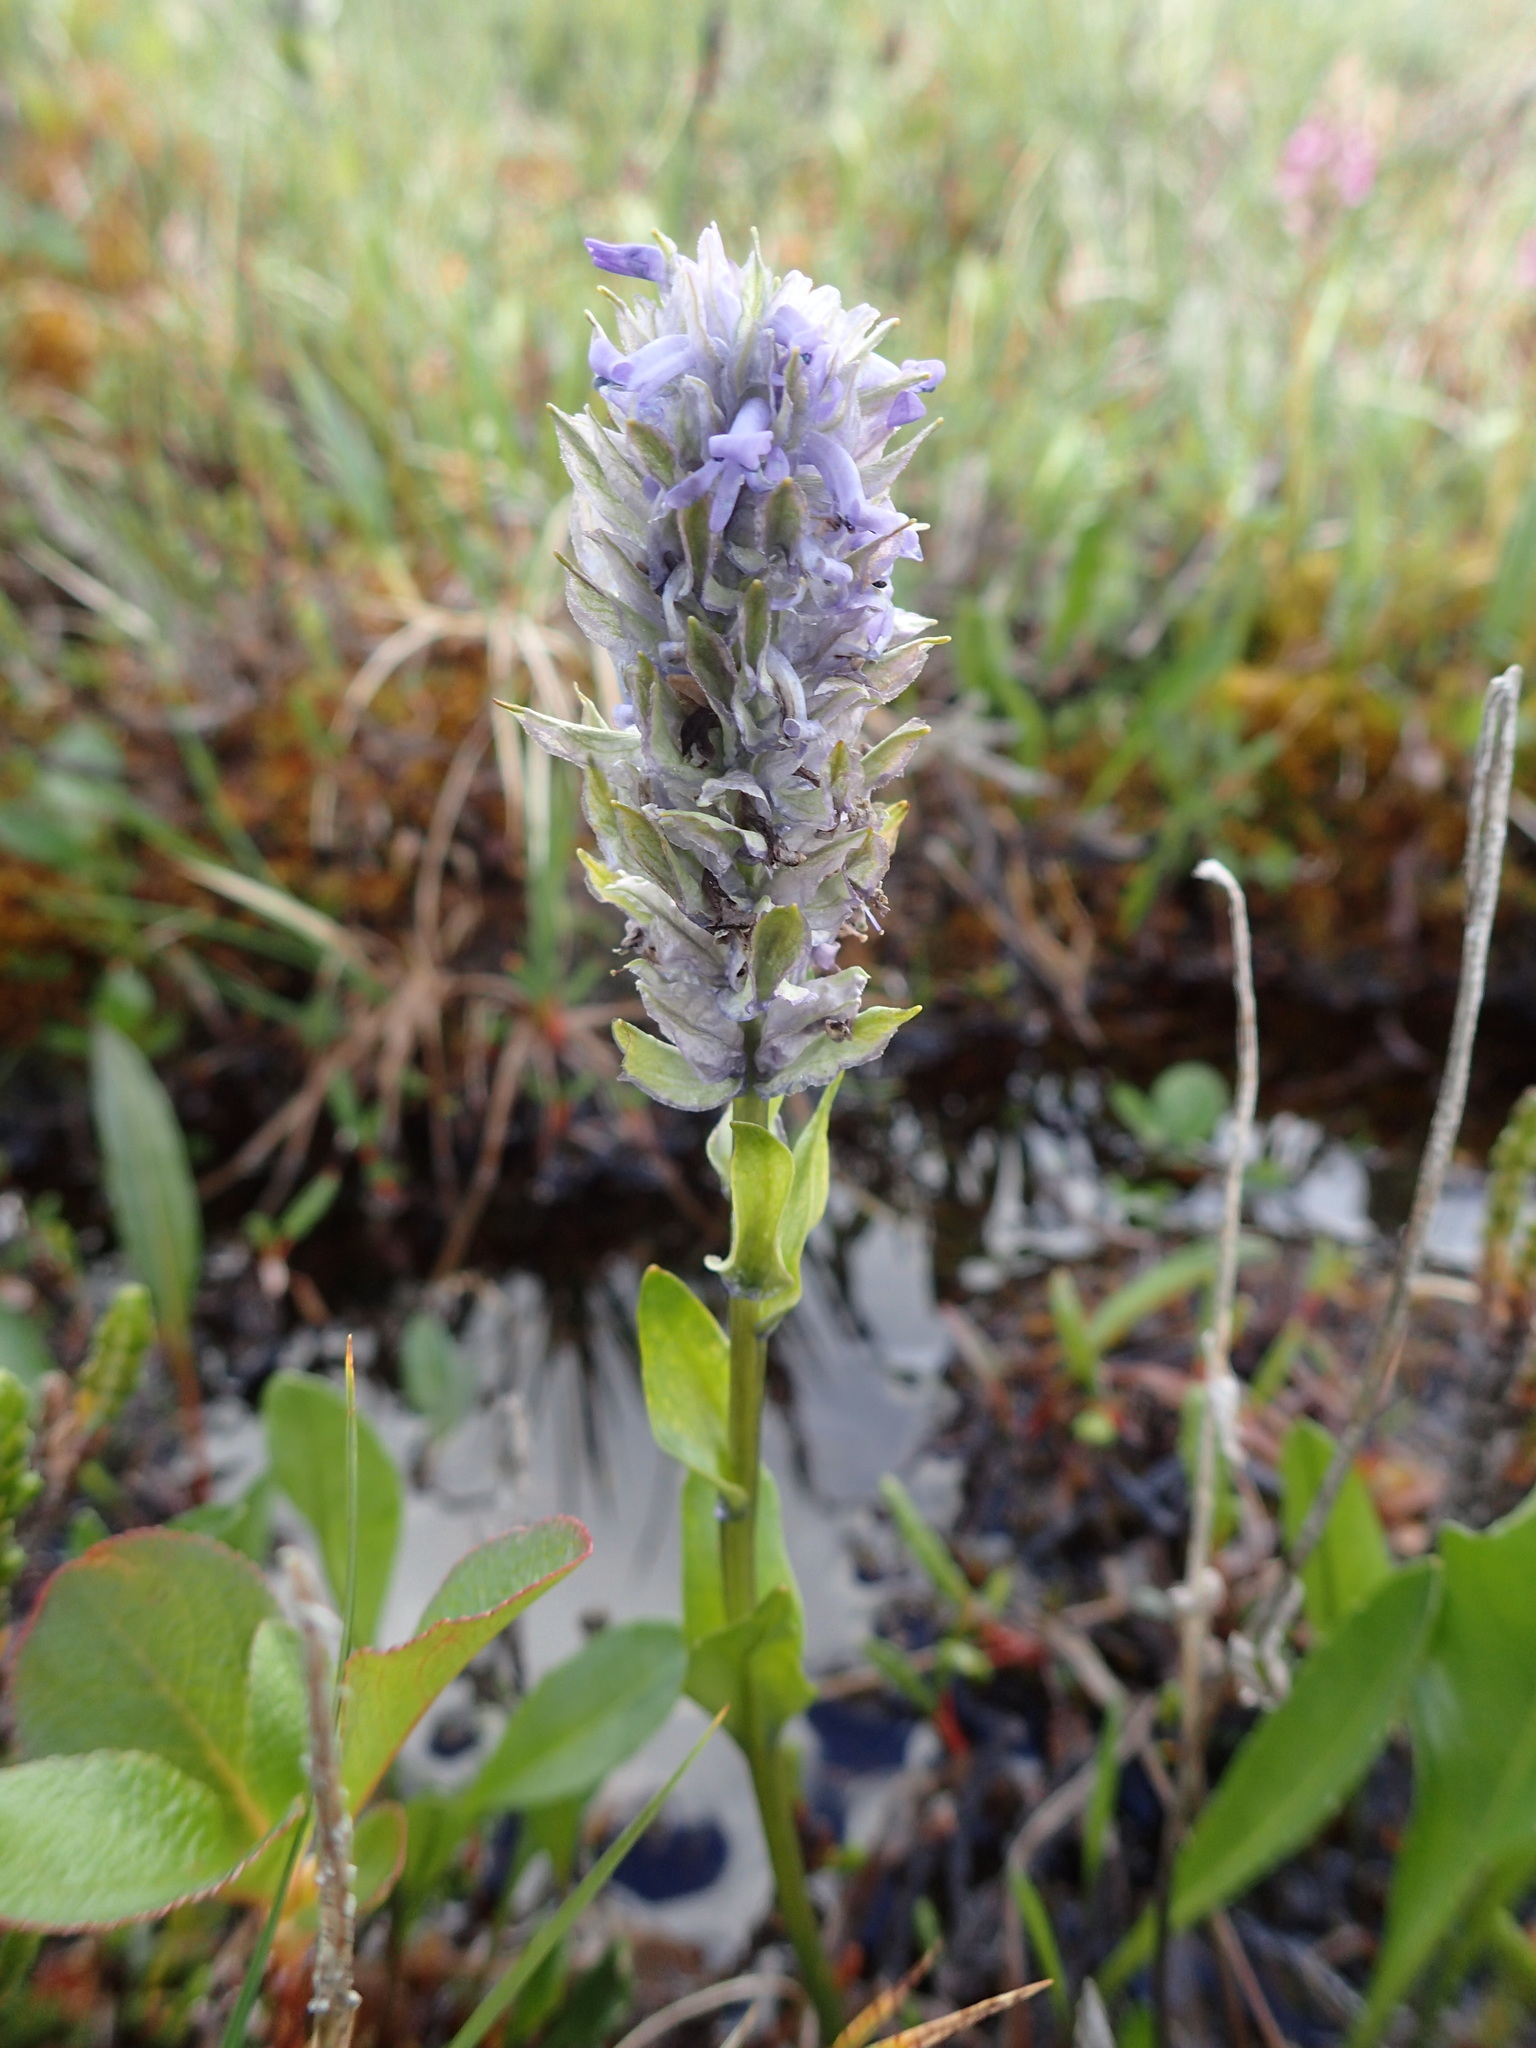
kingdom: Plantae
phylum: Tracheophyta
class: Magnoliopsida
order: Lamiales
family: Plantaginaceae
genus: Lagotis
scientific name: Lagotis glauca
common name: Glaucous weaselsnout
